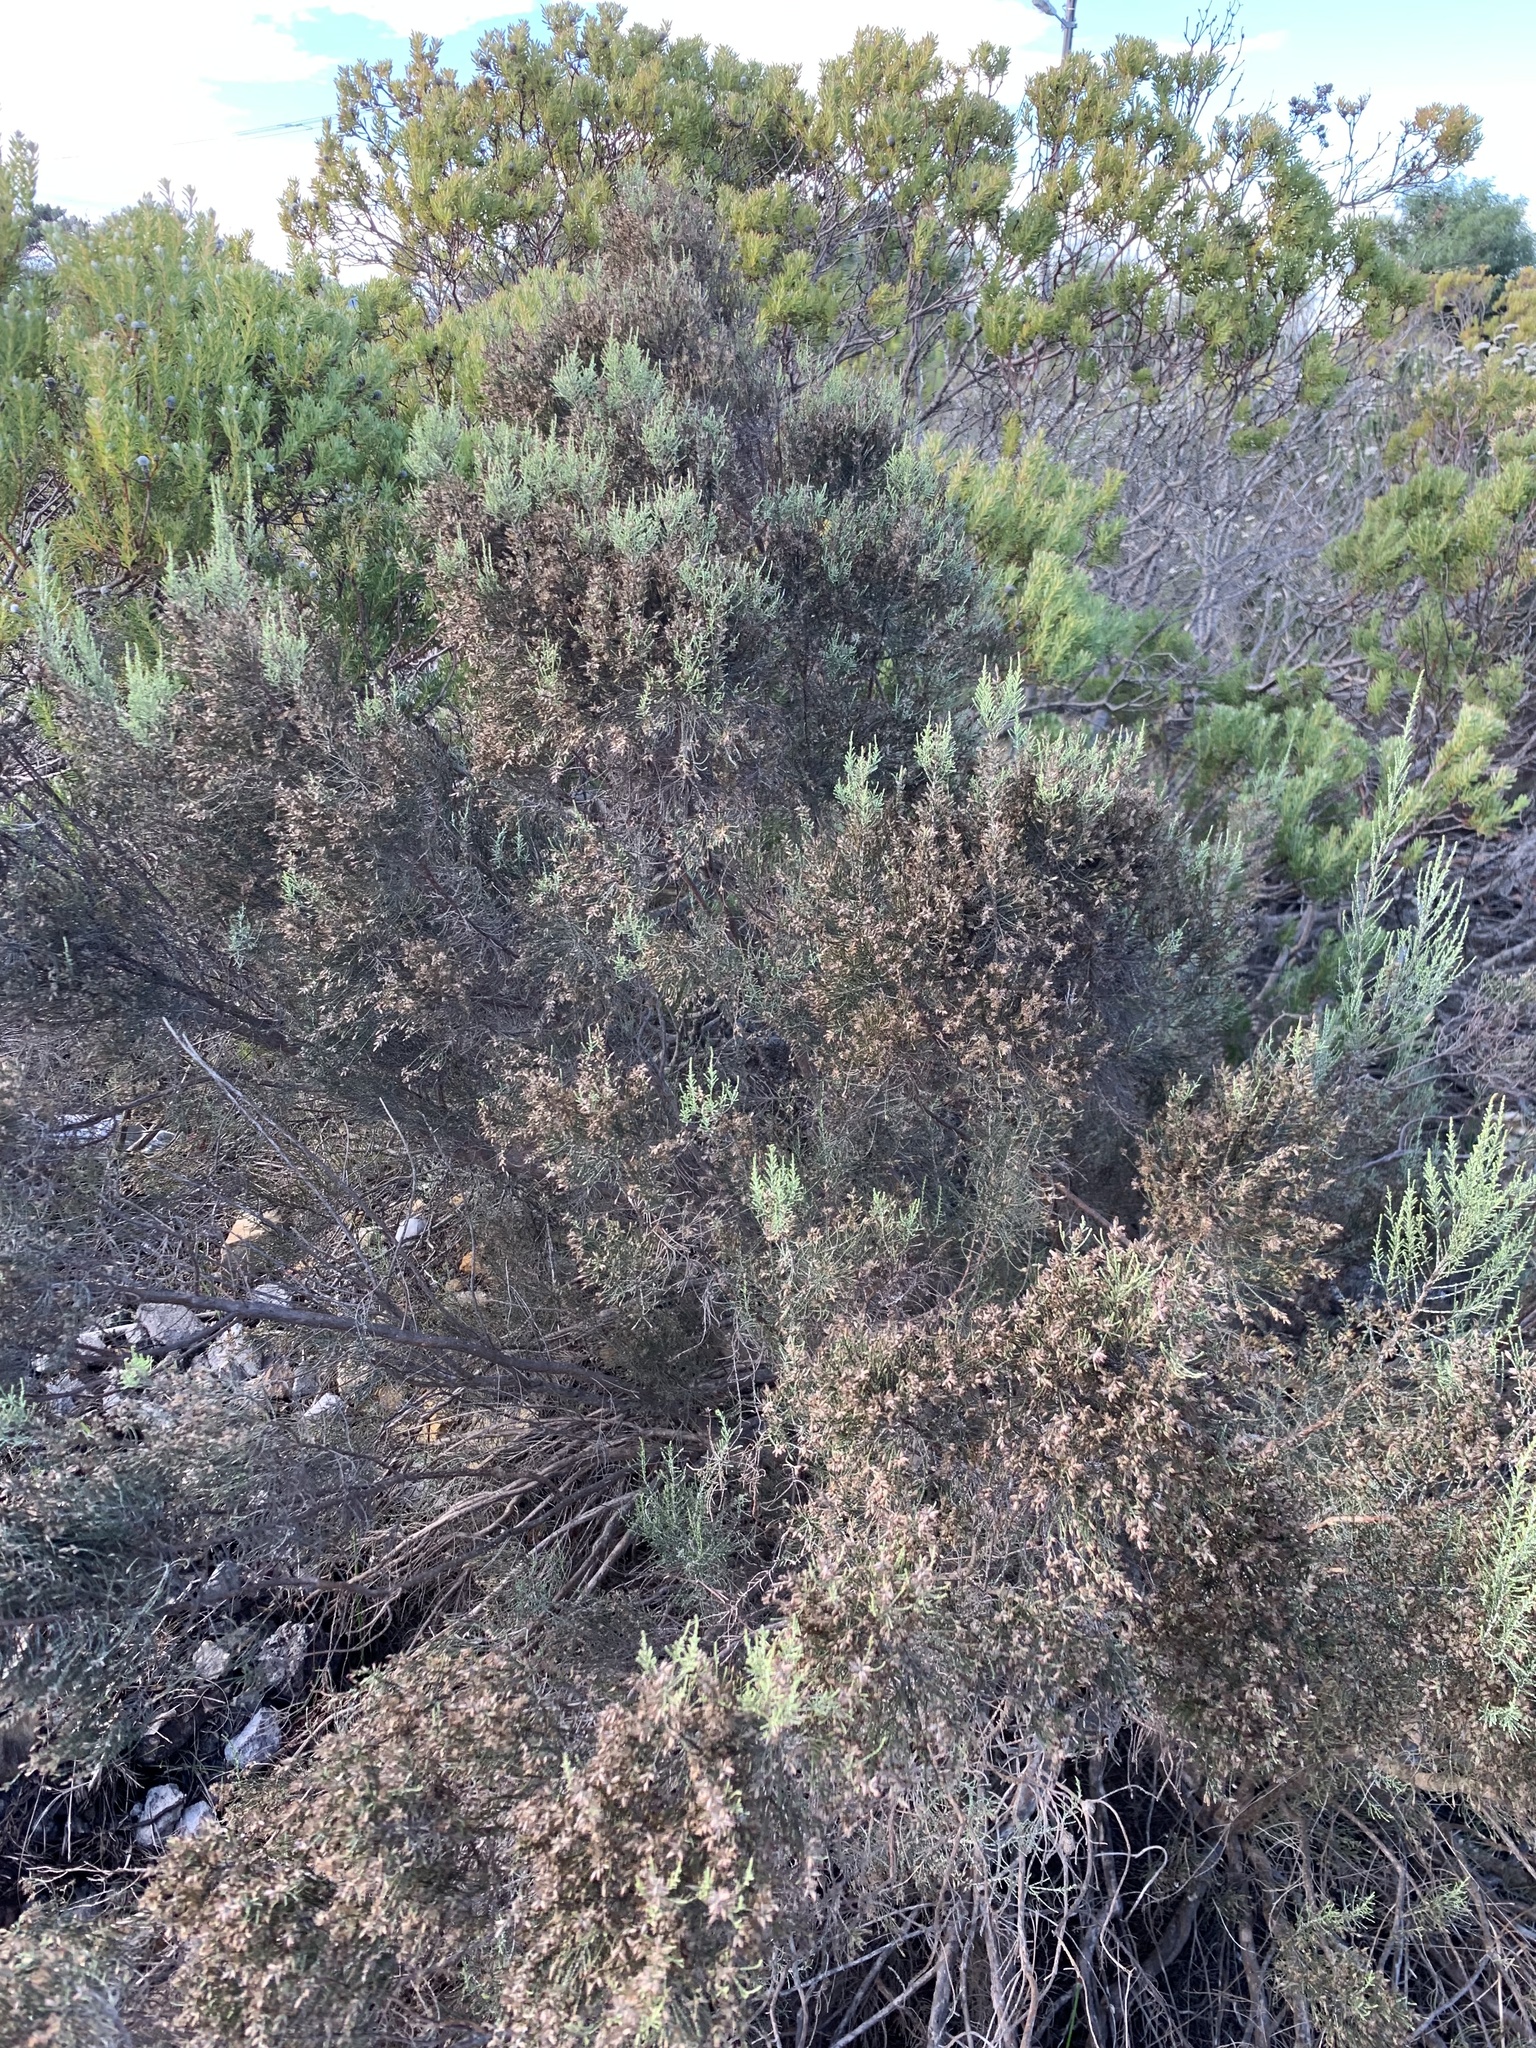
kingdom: Plantae
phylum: Tracheophyta
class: Magnoliopsida
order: Asterales
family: Asteraceae
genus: Dicerothamnus
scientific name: Dicerothamnus rhinocerotis
